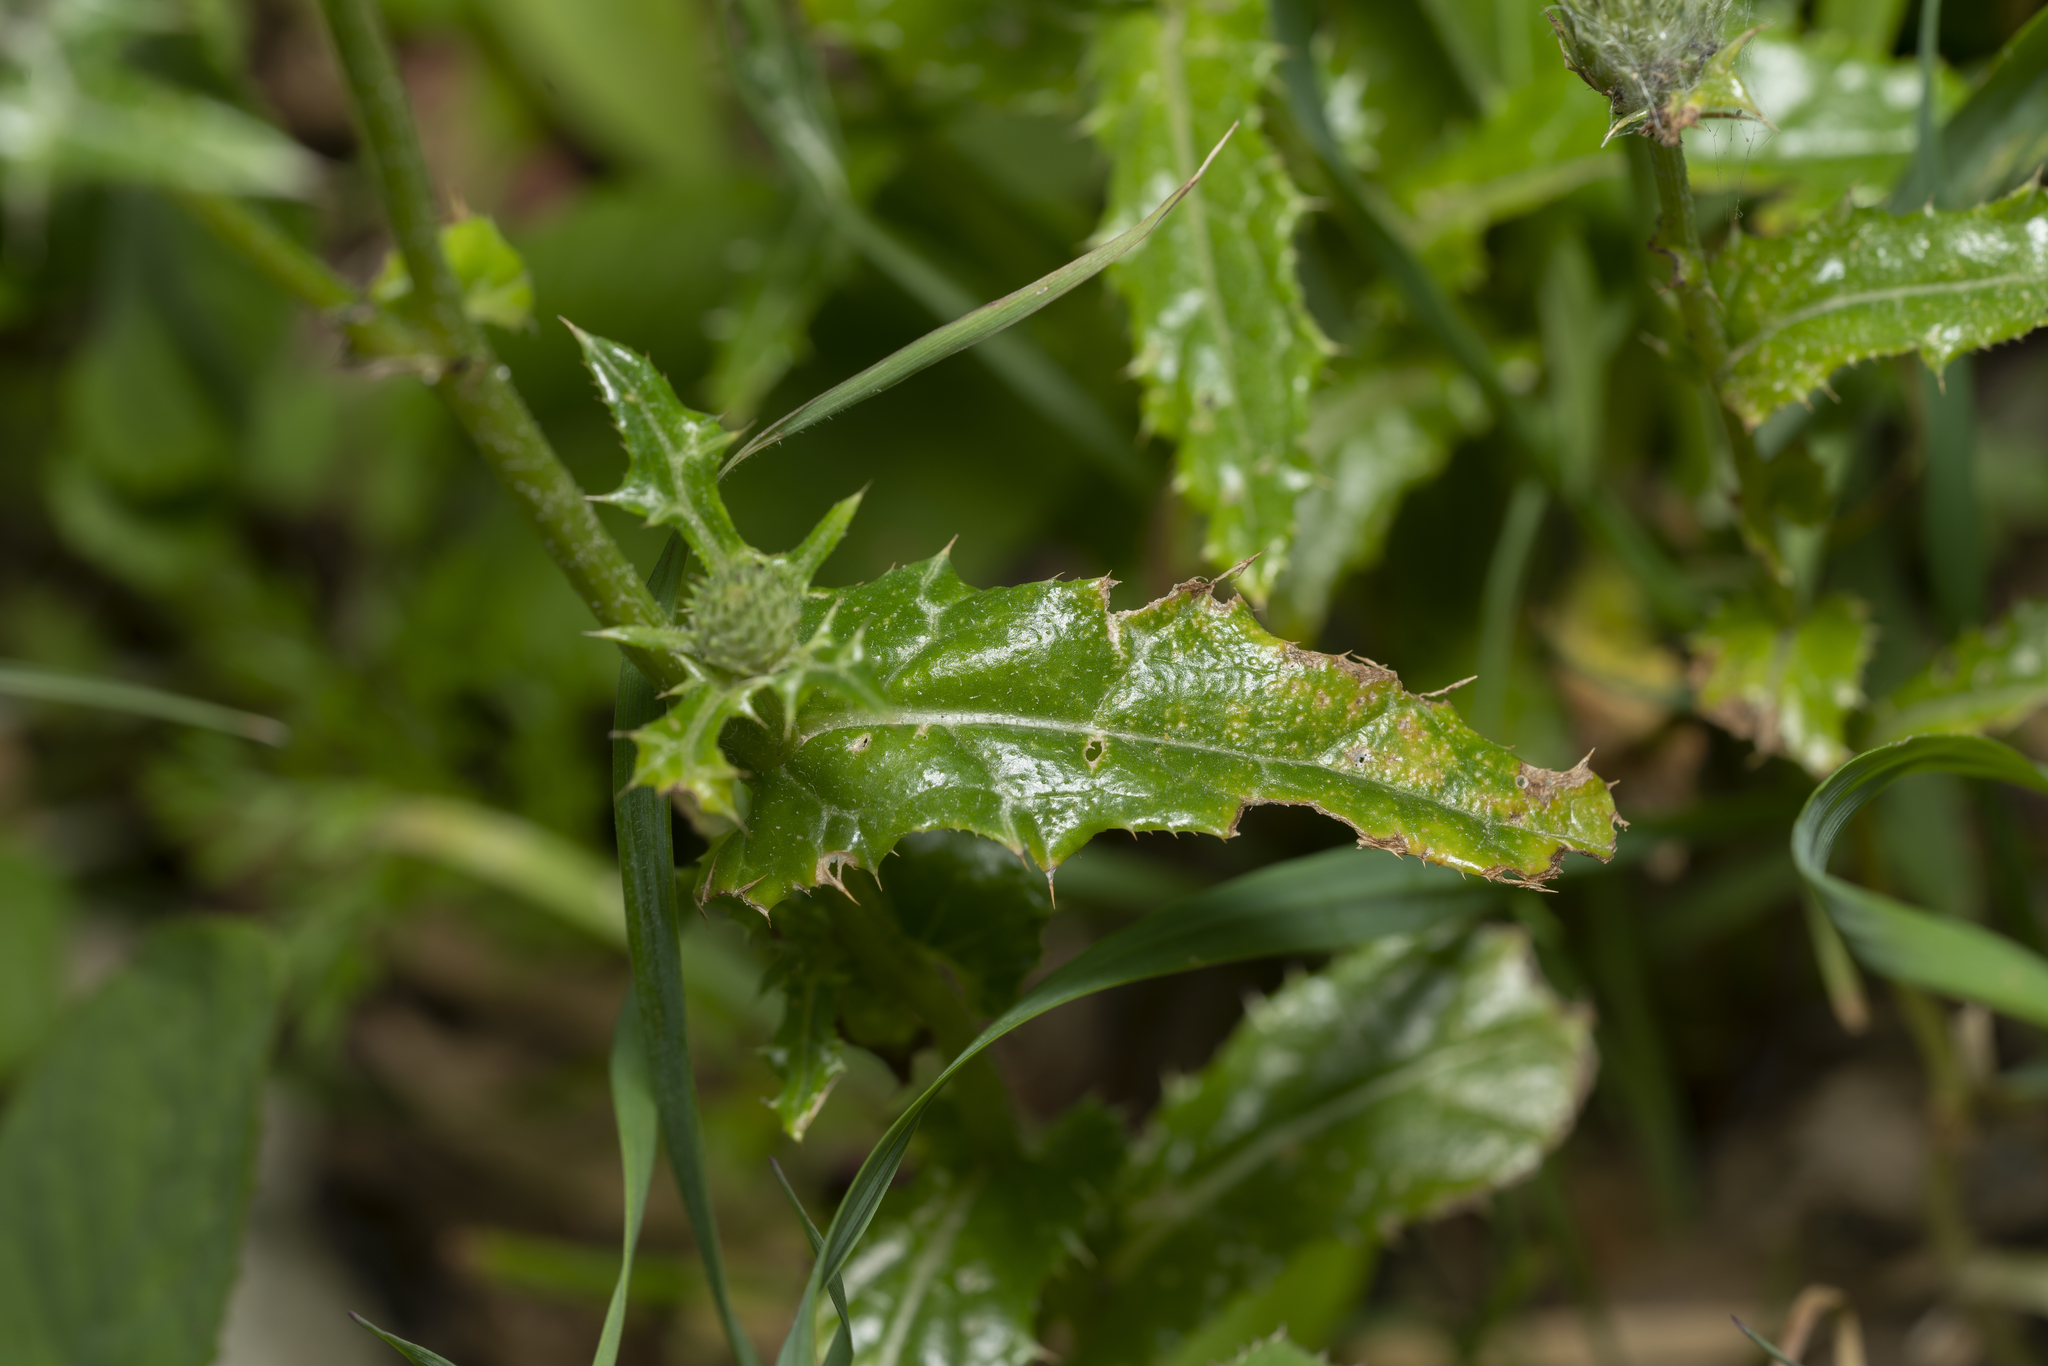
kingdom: Plantae
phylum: Tracheophyta
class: Magnoliopsida
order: Asterales
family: Asteraceae
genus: Notobasis
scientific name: Notobasis syriaca
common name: Syrian thistle
